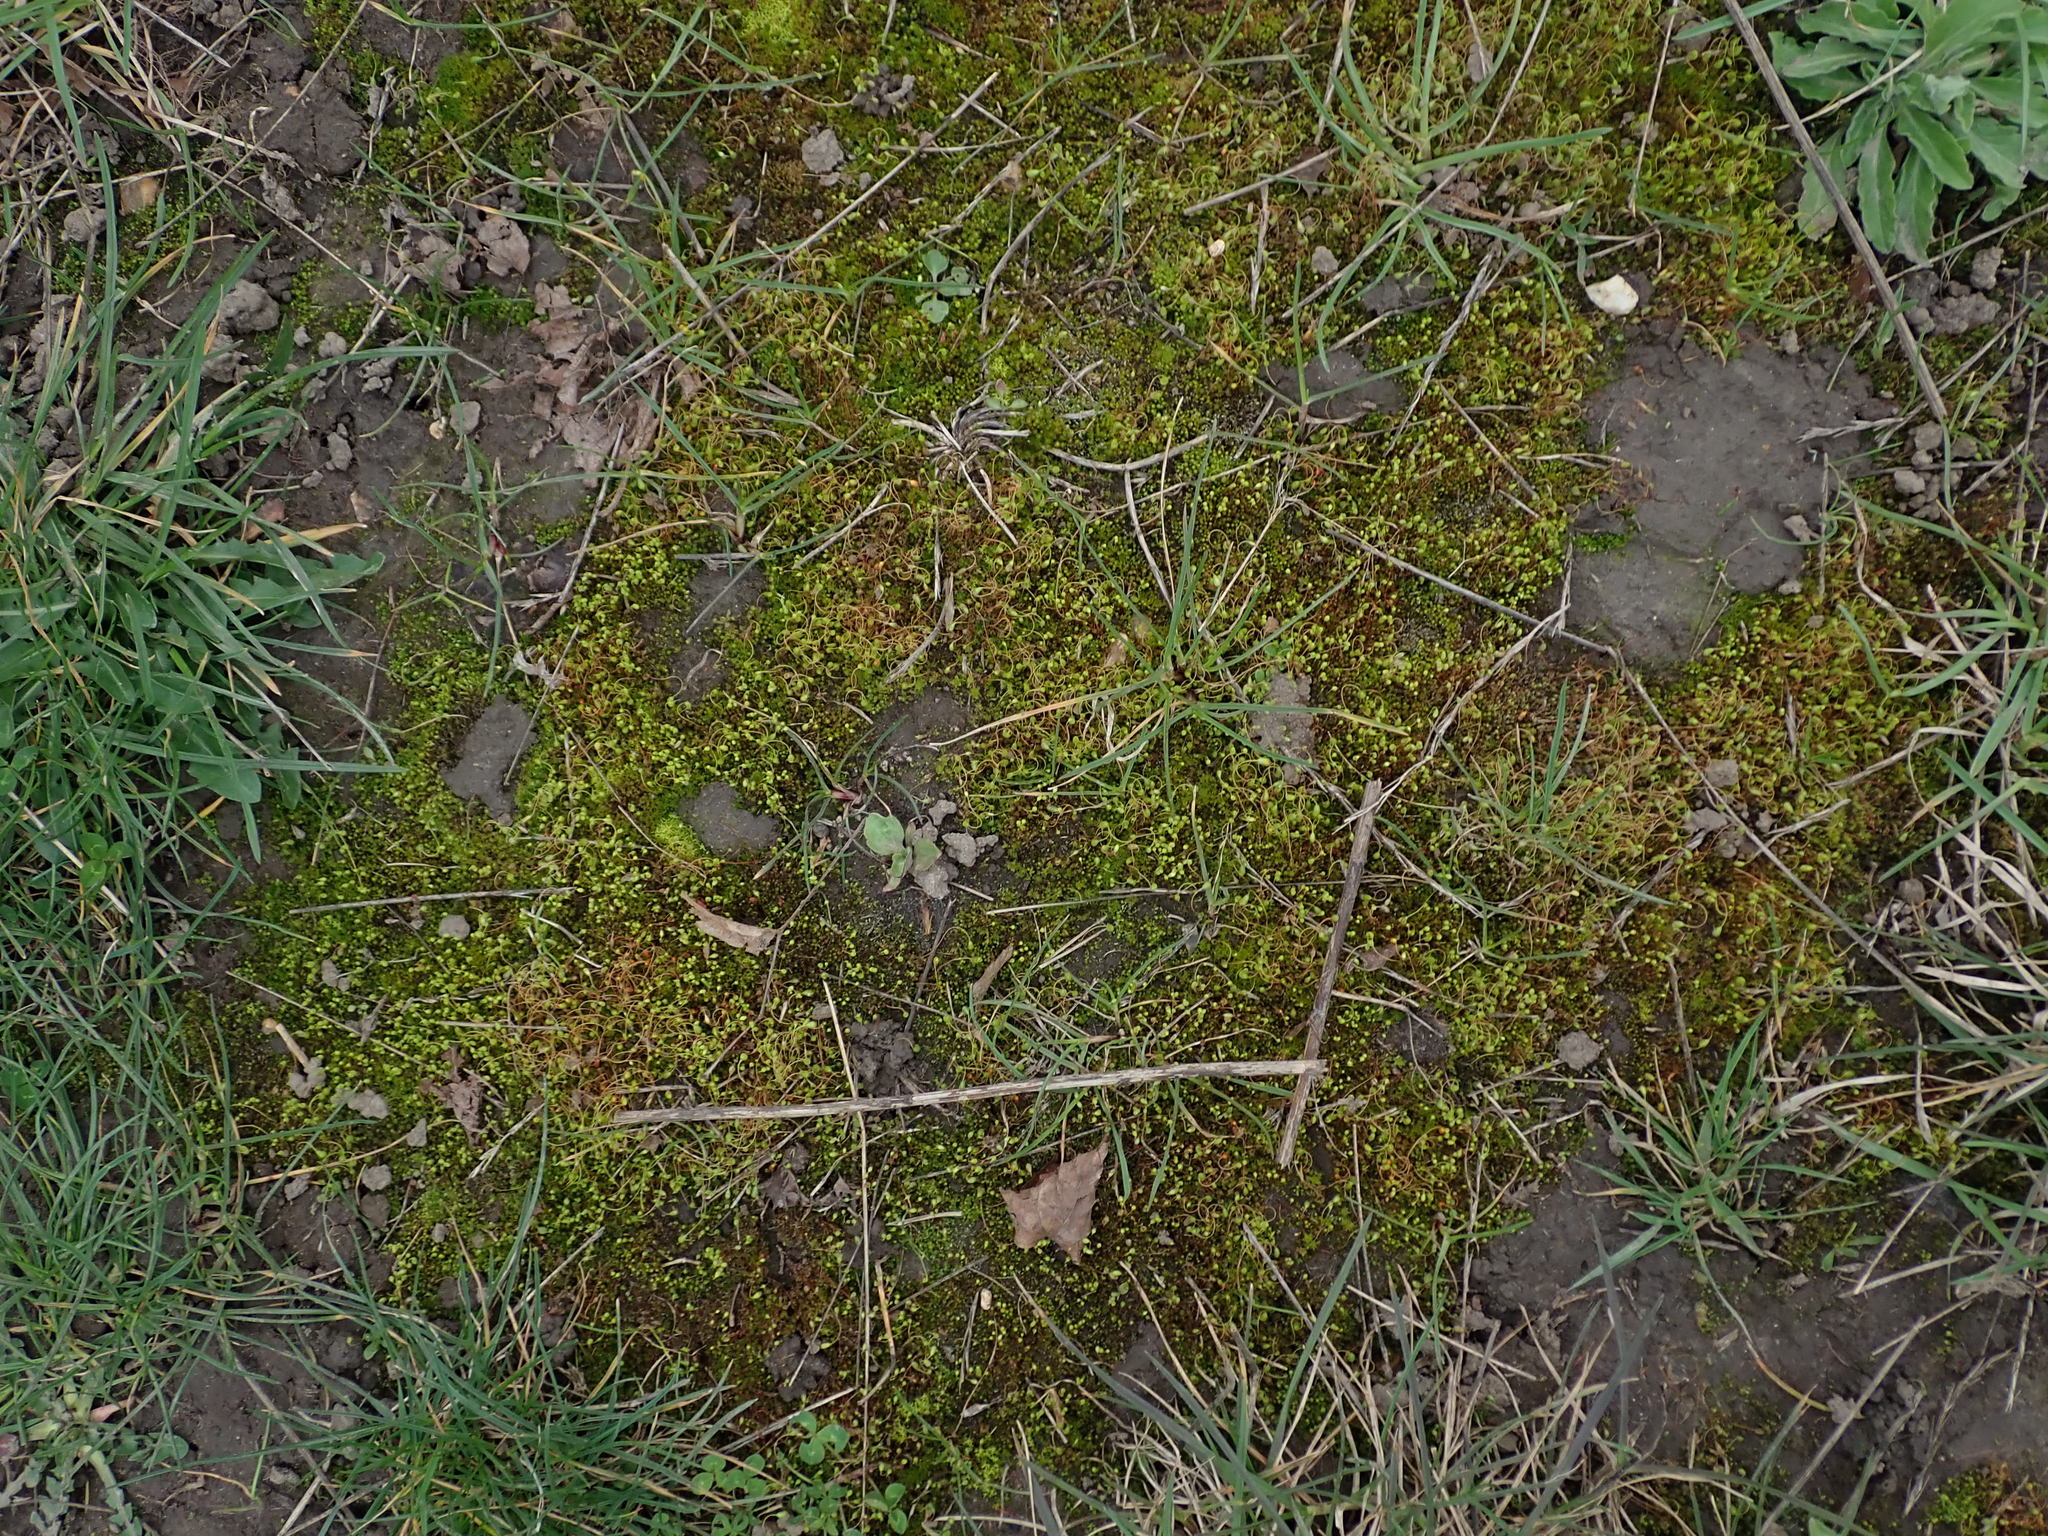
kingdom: Plantae
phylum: Bryophyta
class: Bryopsida
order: Funariales
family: Funariaceae
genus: Funaria
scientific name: Funaria hygrometrica
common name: Common cord moss
